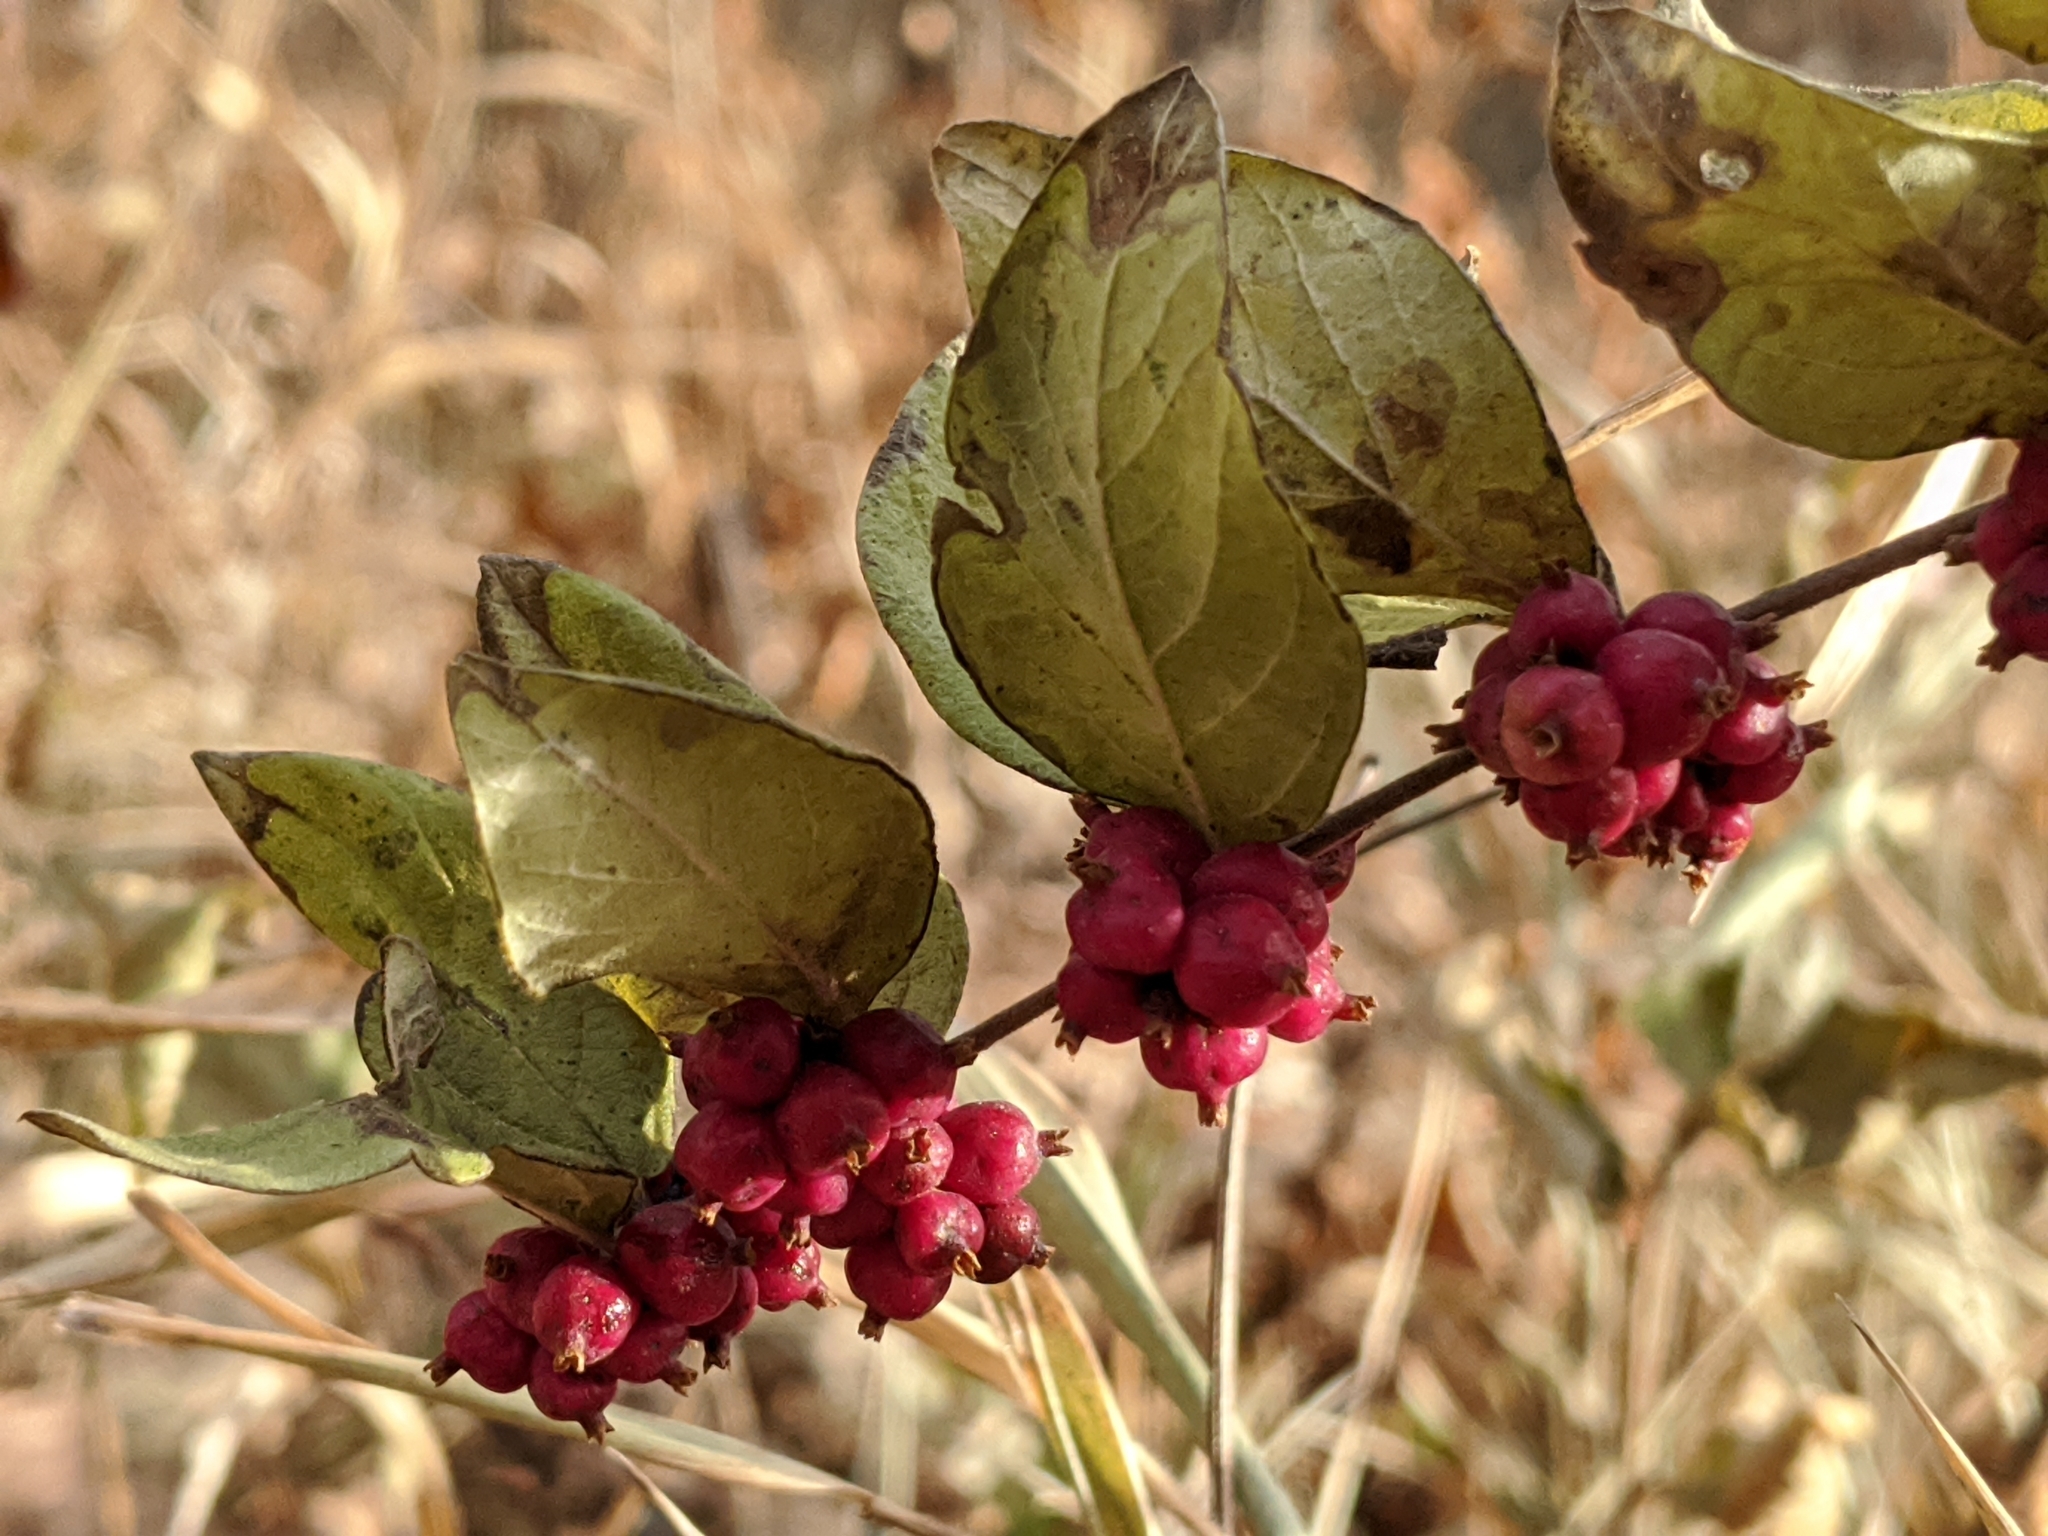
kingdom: Plantae
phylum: Tracheophyta
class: Magnoliopsida
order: Dipsacales
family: Caprifoliaceae
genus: Symphoricarpos
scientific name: Symphoricarpos orbiculatus
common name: Coralberry
